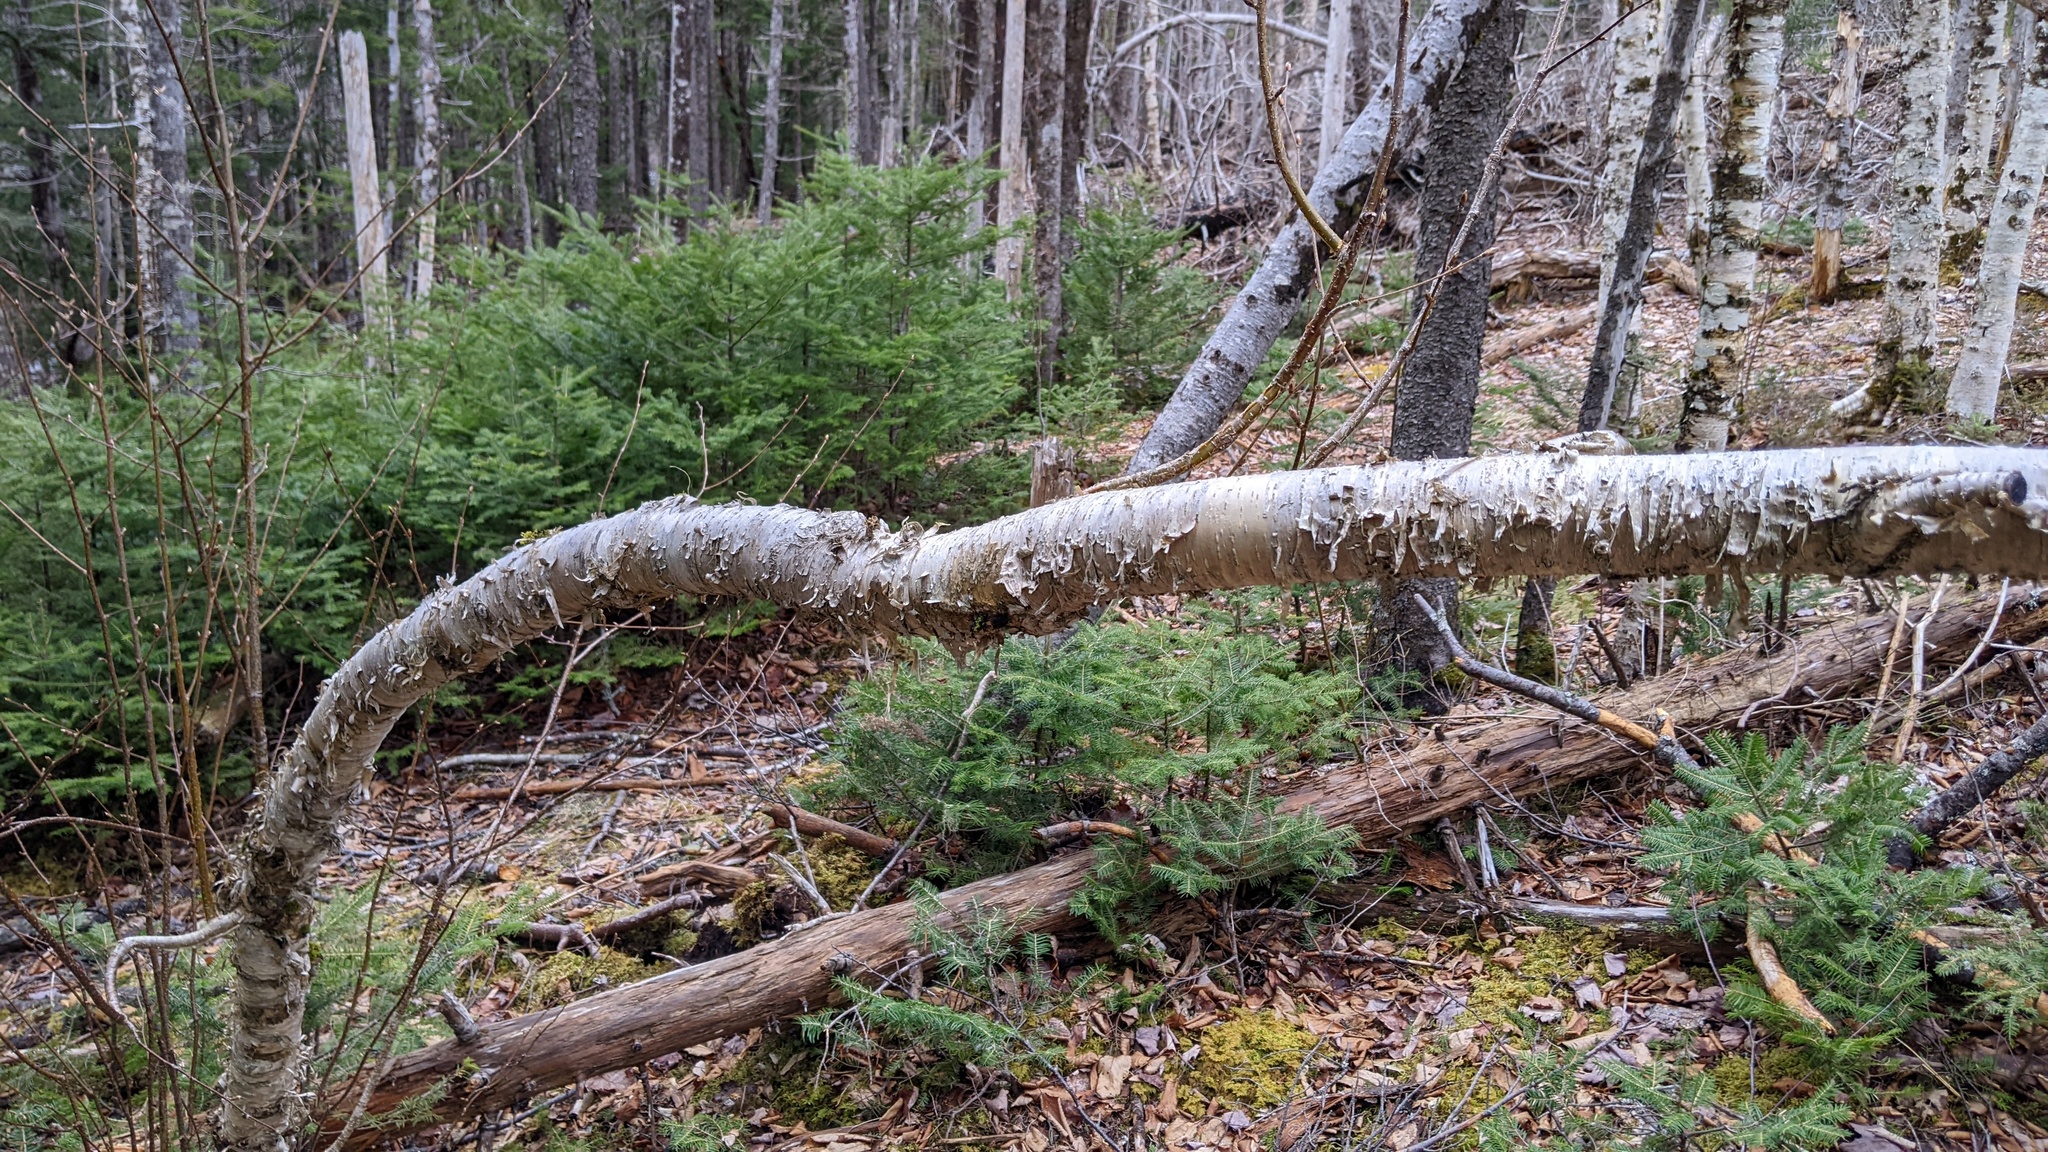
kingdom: Plantae
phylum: Tracheophyta
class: Magnoliopsida
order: Fagales
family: Betulaceae
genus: Betula
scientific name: Betula alleghaniensis
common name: Yellow birch
